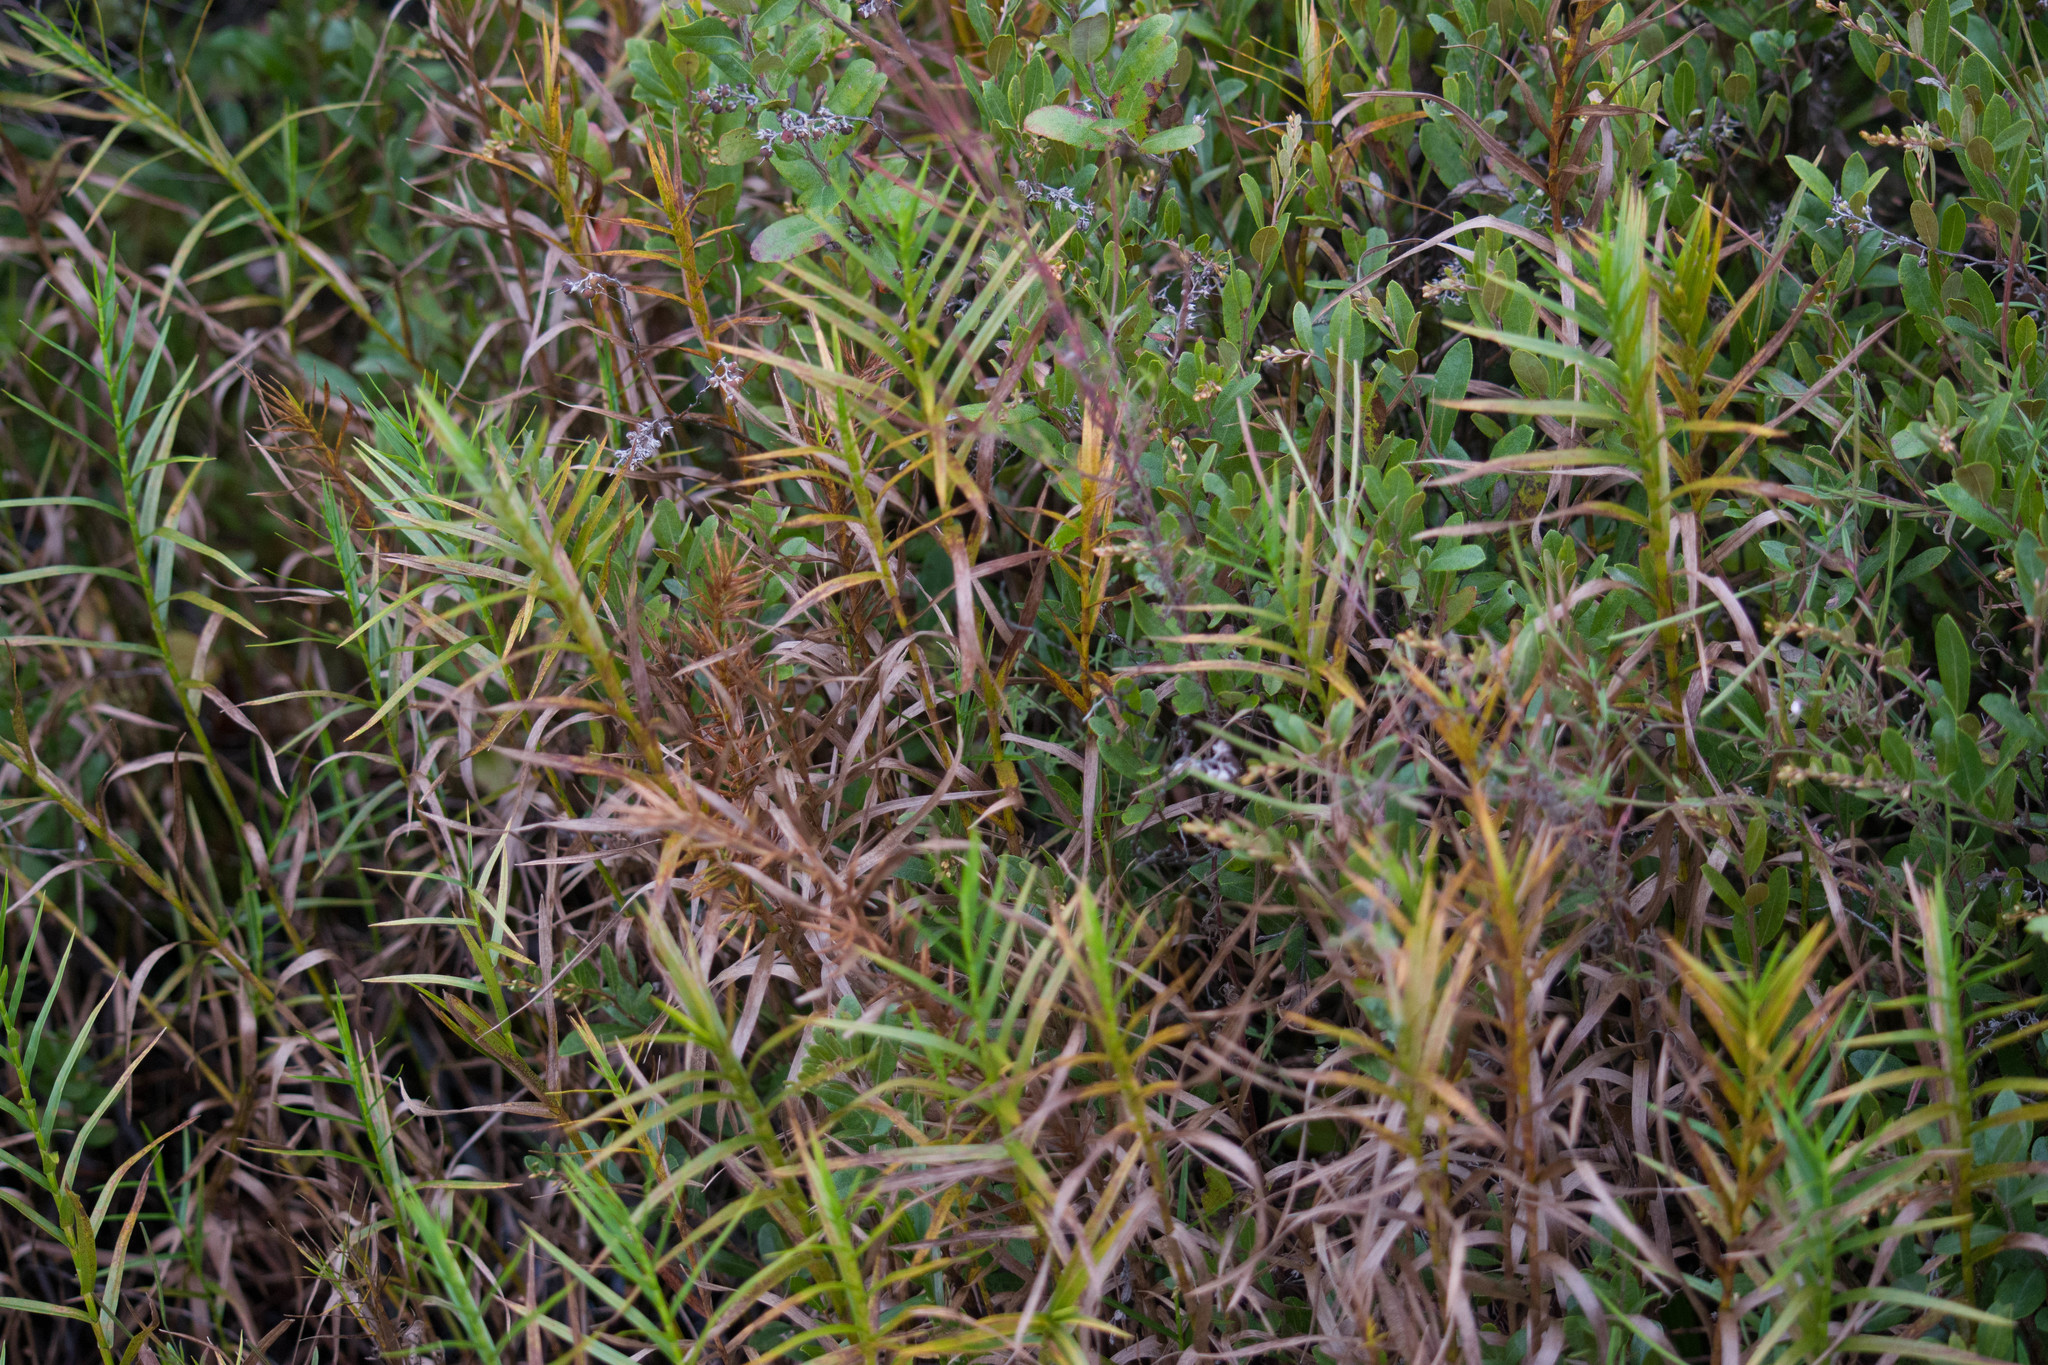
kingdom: Plantae
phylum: Tracheophyta
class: Liliopsida
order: Poales
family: Cyperaceae
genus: Dulichium
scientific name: Dulichium arundinaceum
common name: Three-way sedge
